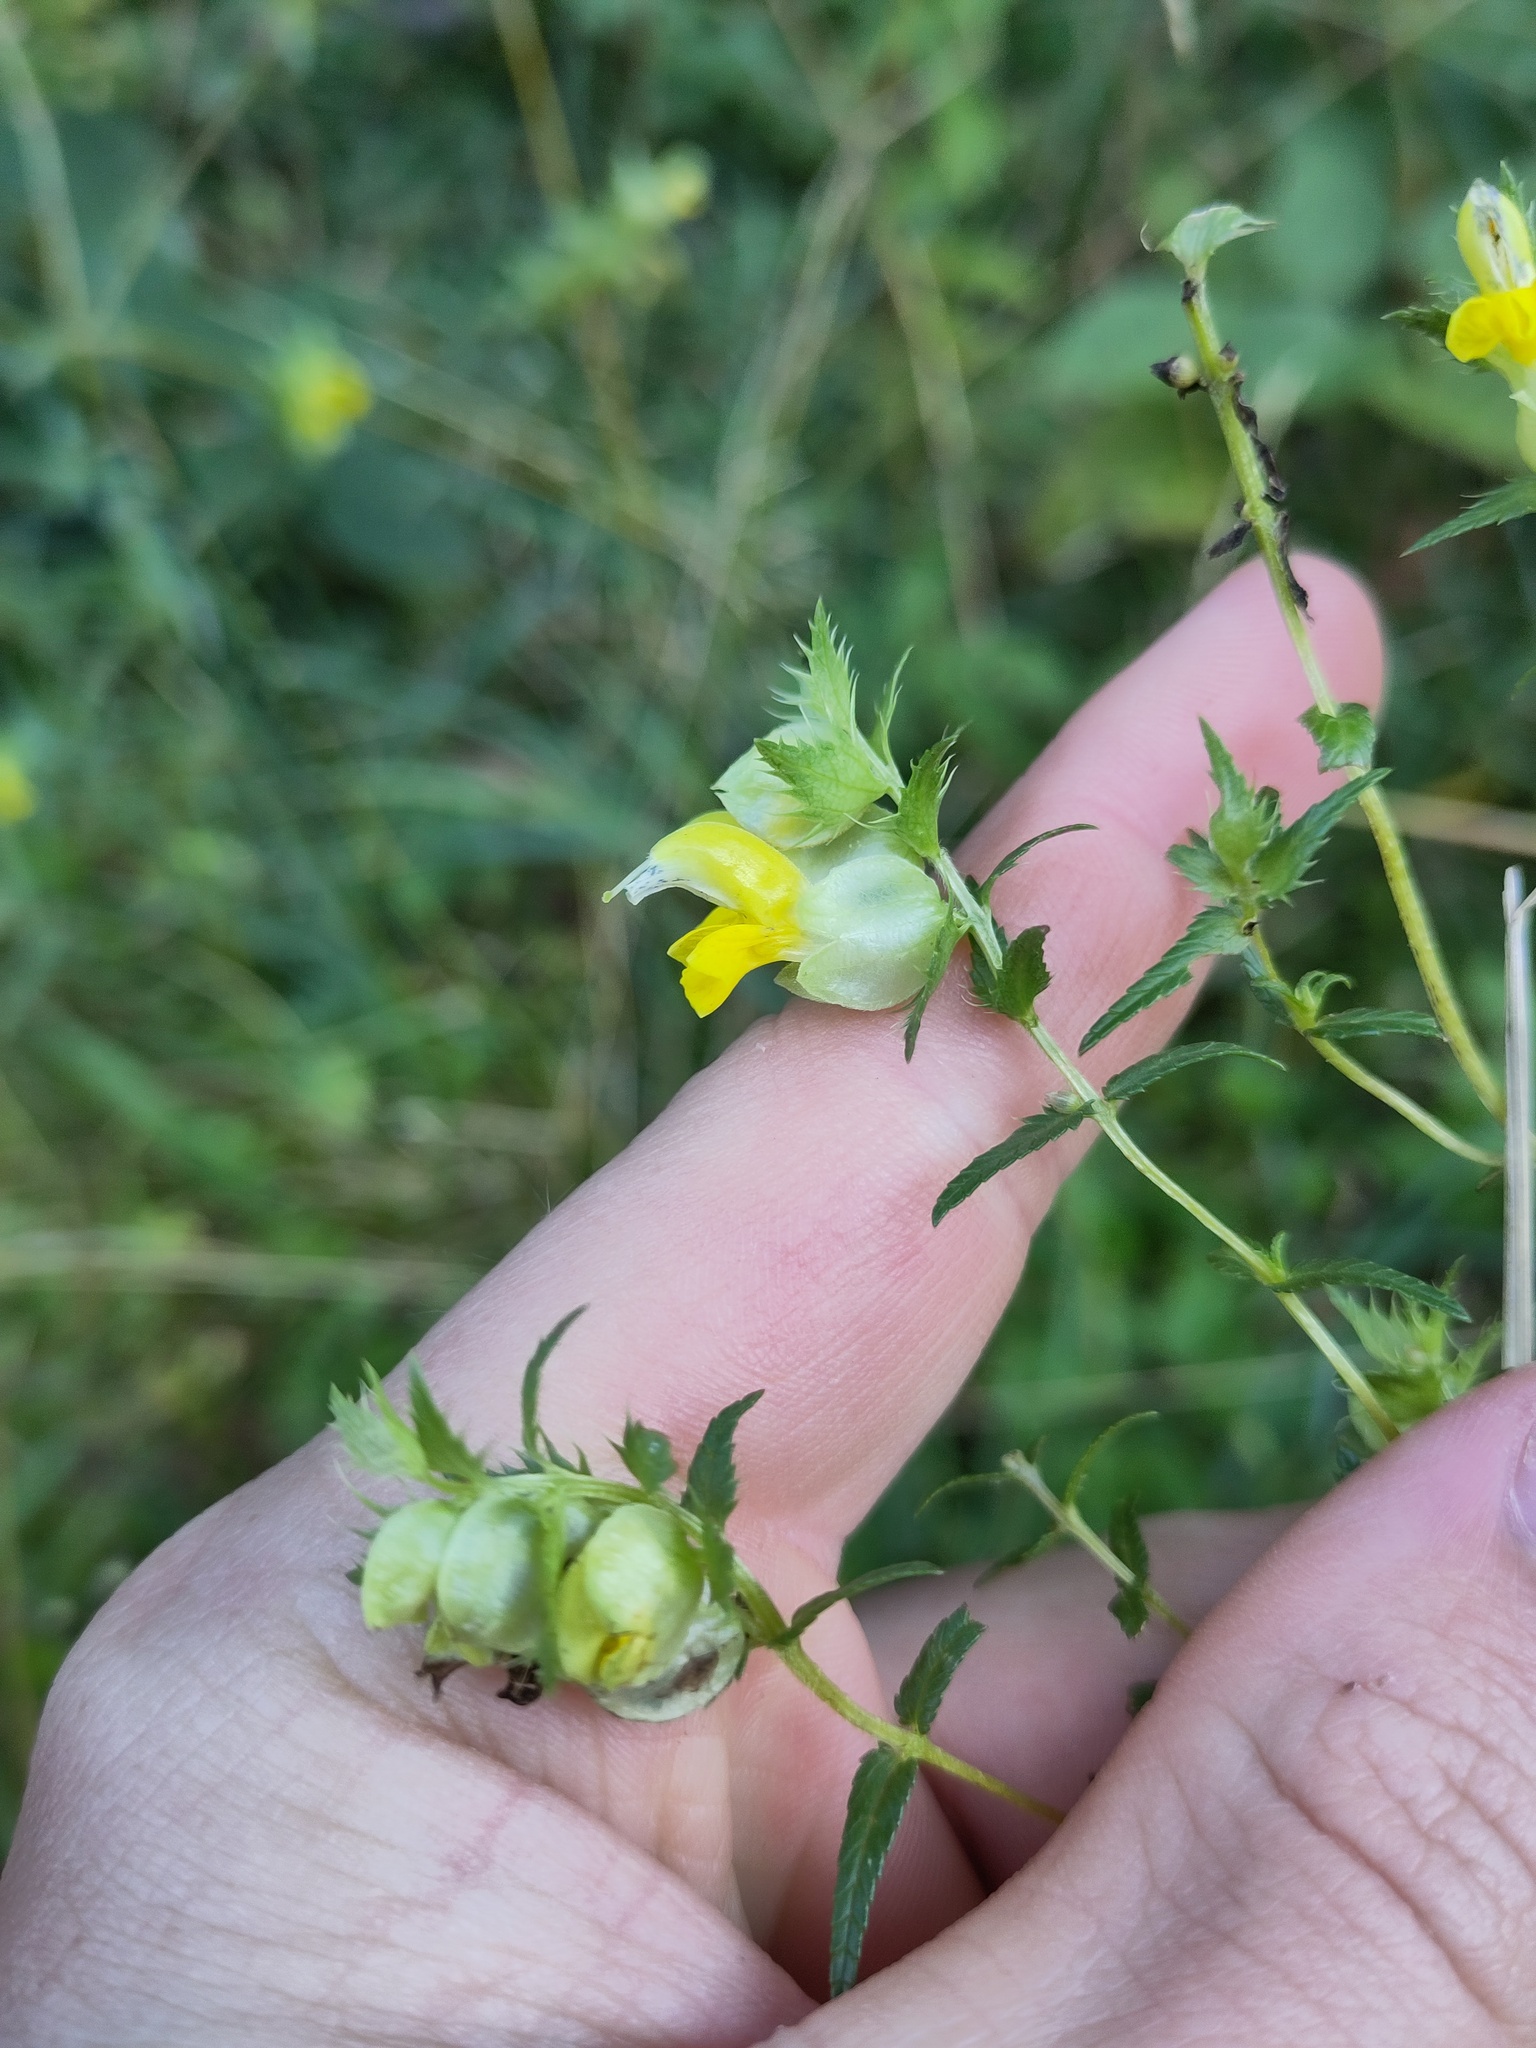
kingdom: Plantae
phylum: Tracheophyta
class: Magnoliopsida
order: Lamiales
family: Orobanchaceae
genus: Rhinanthus
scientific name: Rhinanthus glacialis
